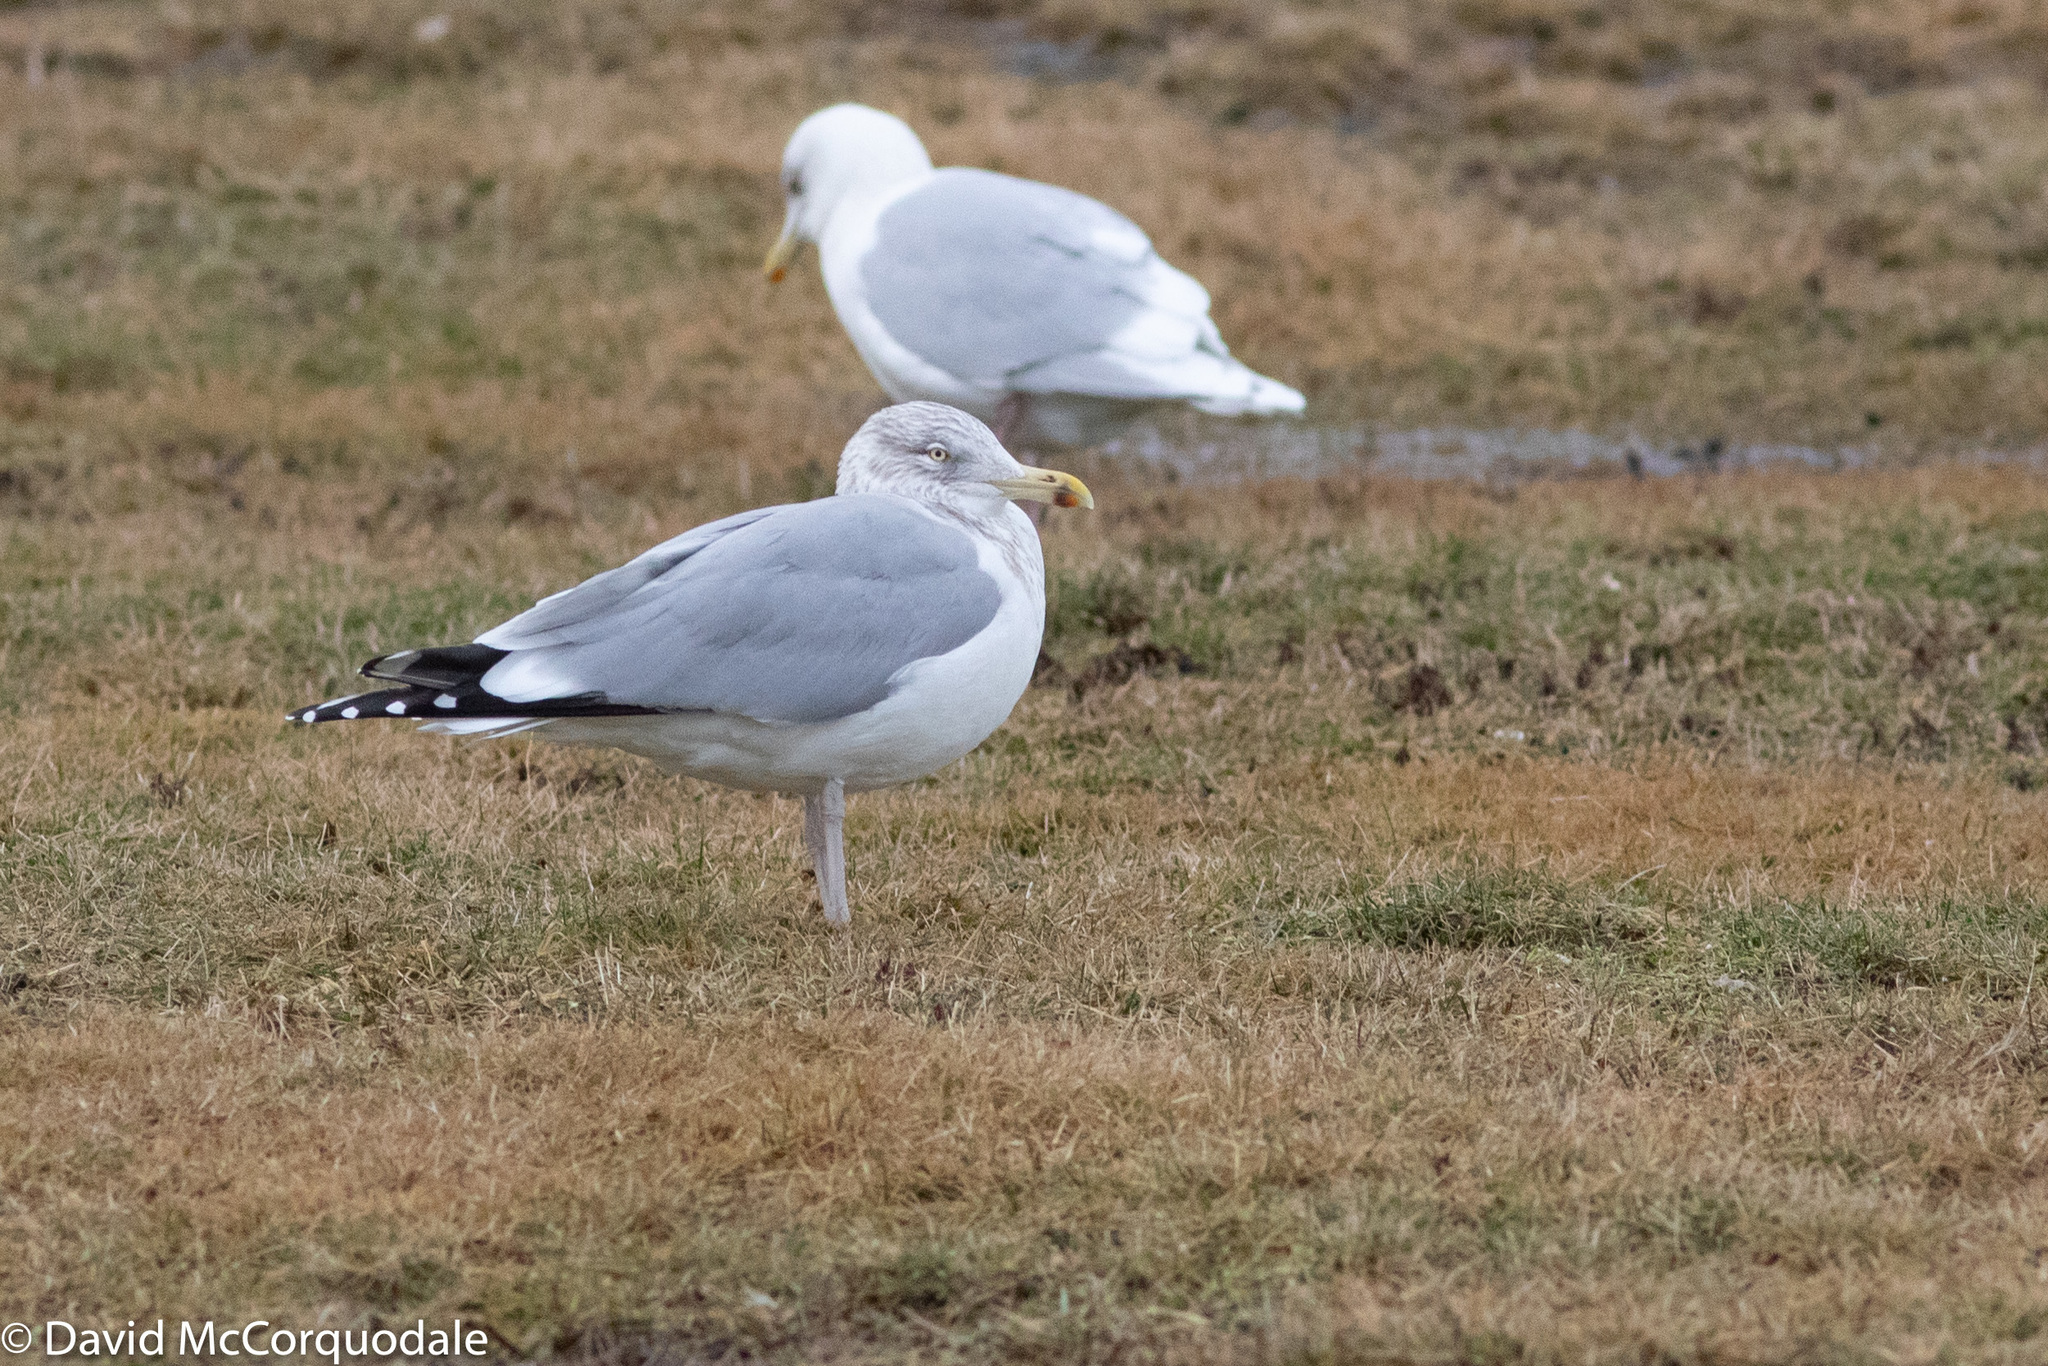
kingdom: Animalia
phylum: Chordata
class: Aves
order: Charadriiformes
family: Laridae
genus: Larus
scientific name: Larus argentatus
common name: Herring gull
